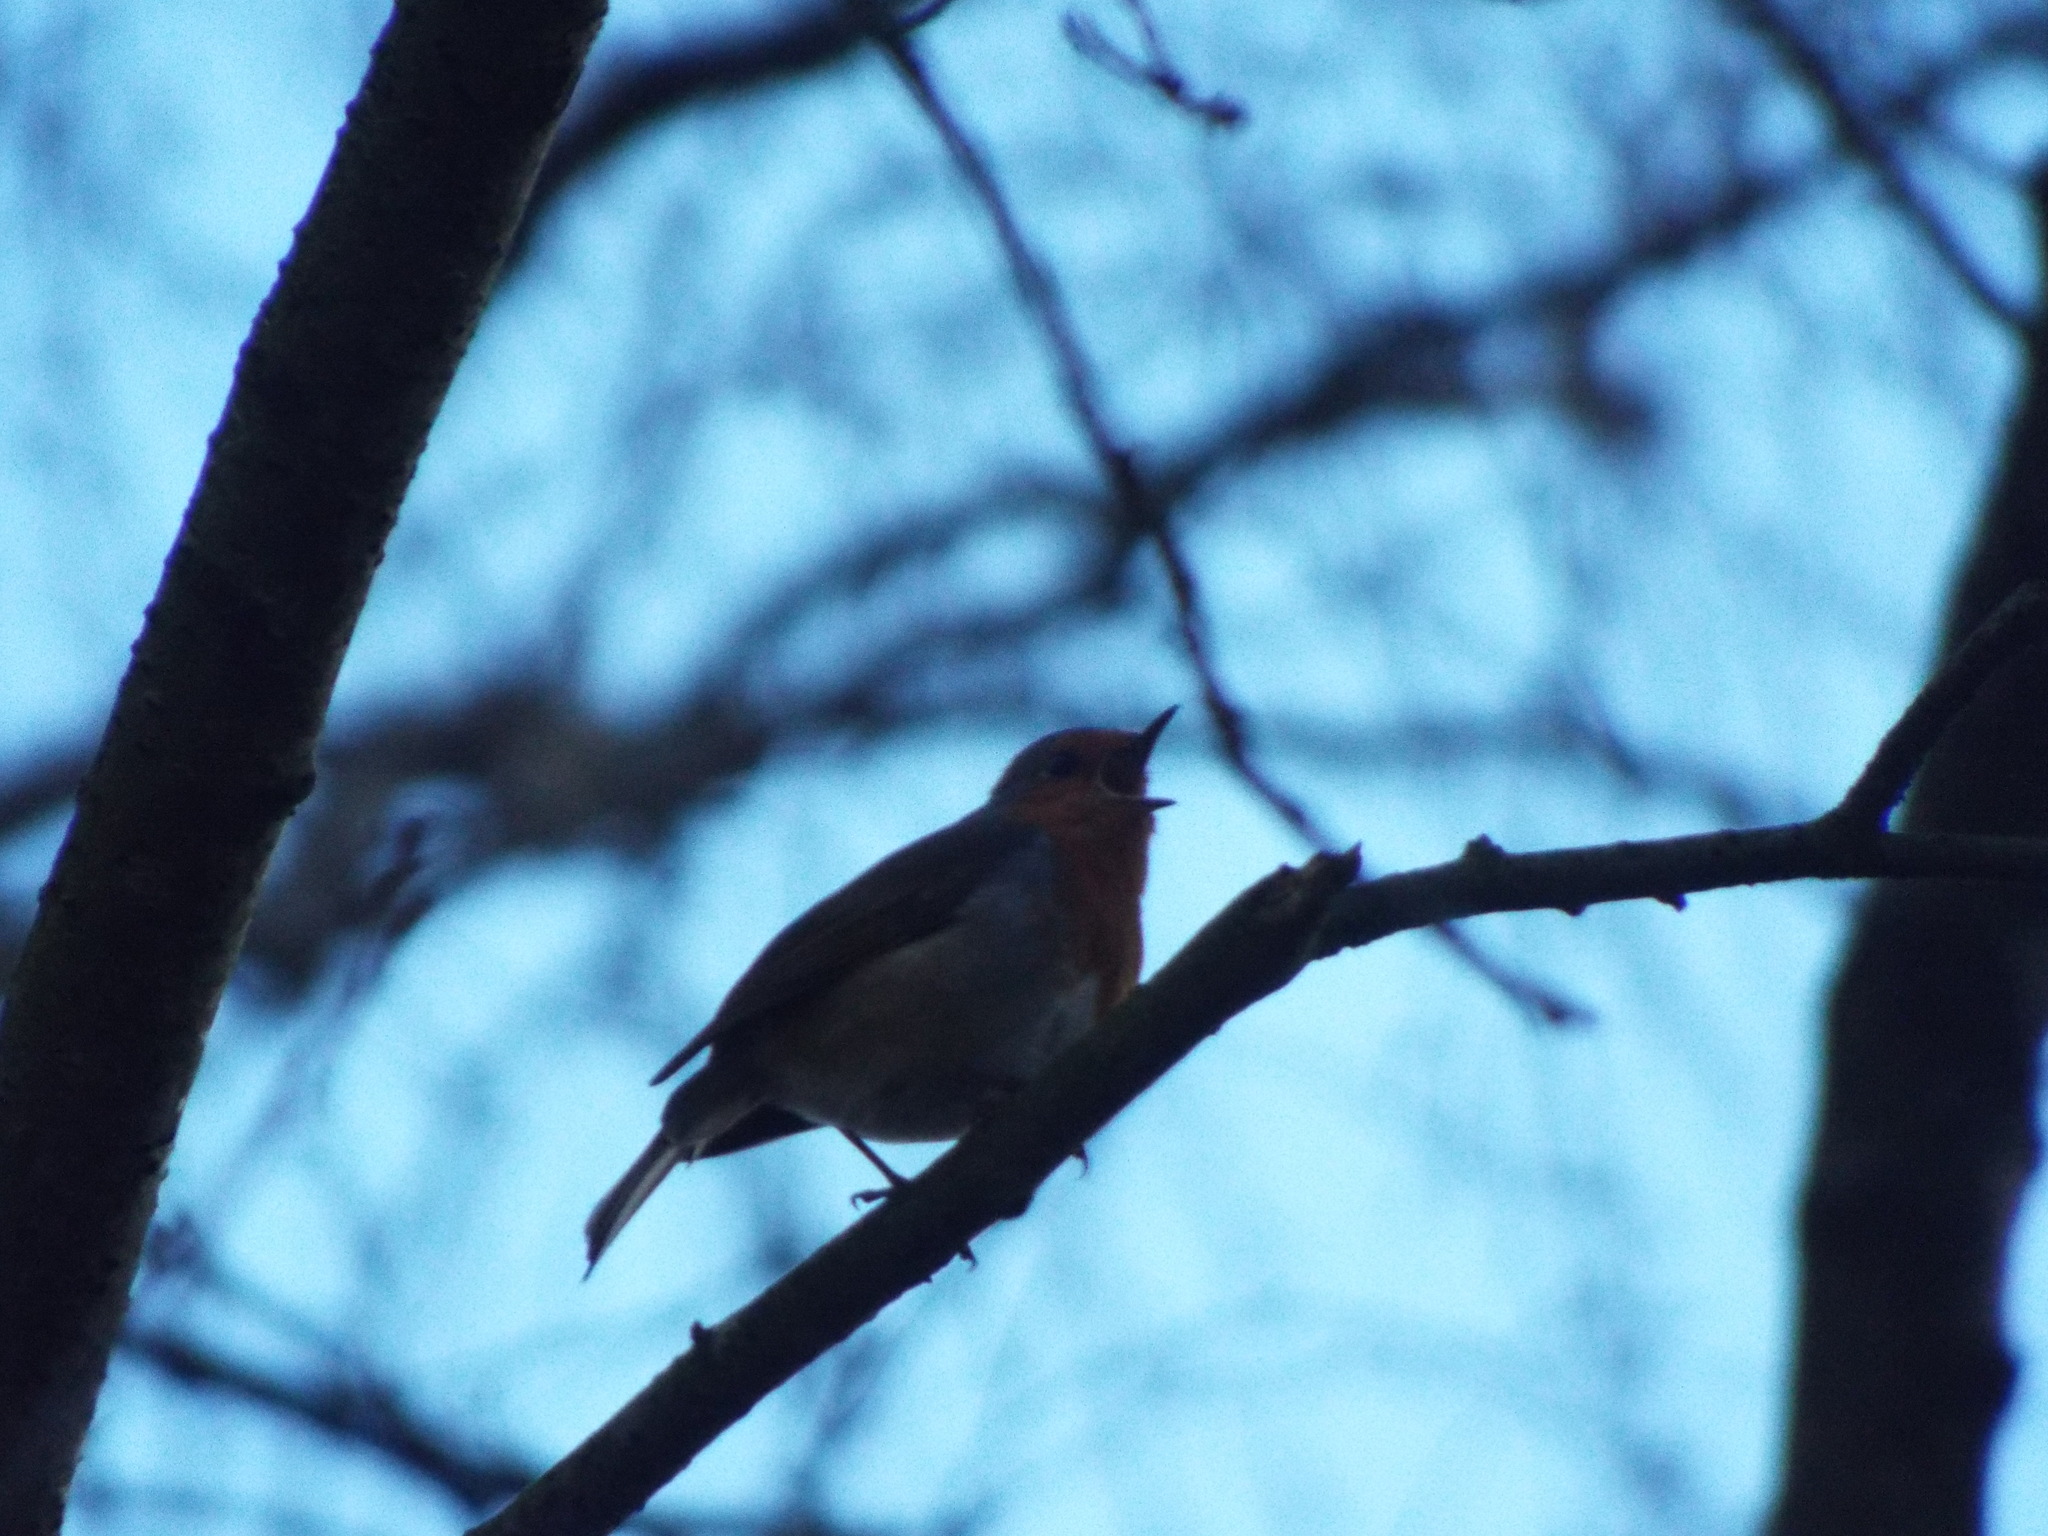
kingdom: Animalia
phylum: Chordata
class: Aves
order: Passeriformes
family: Muscicapidae
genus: Erithacus
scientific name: Erithacus rubecula
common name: European robin
